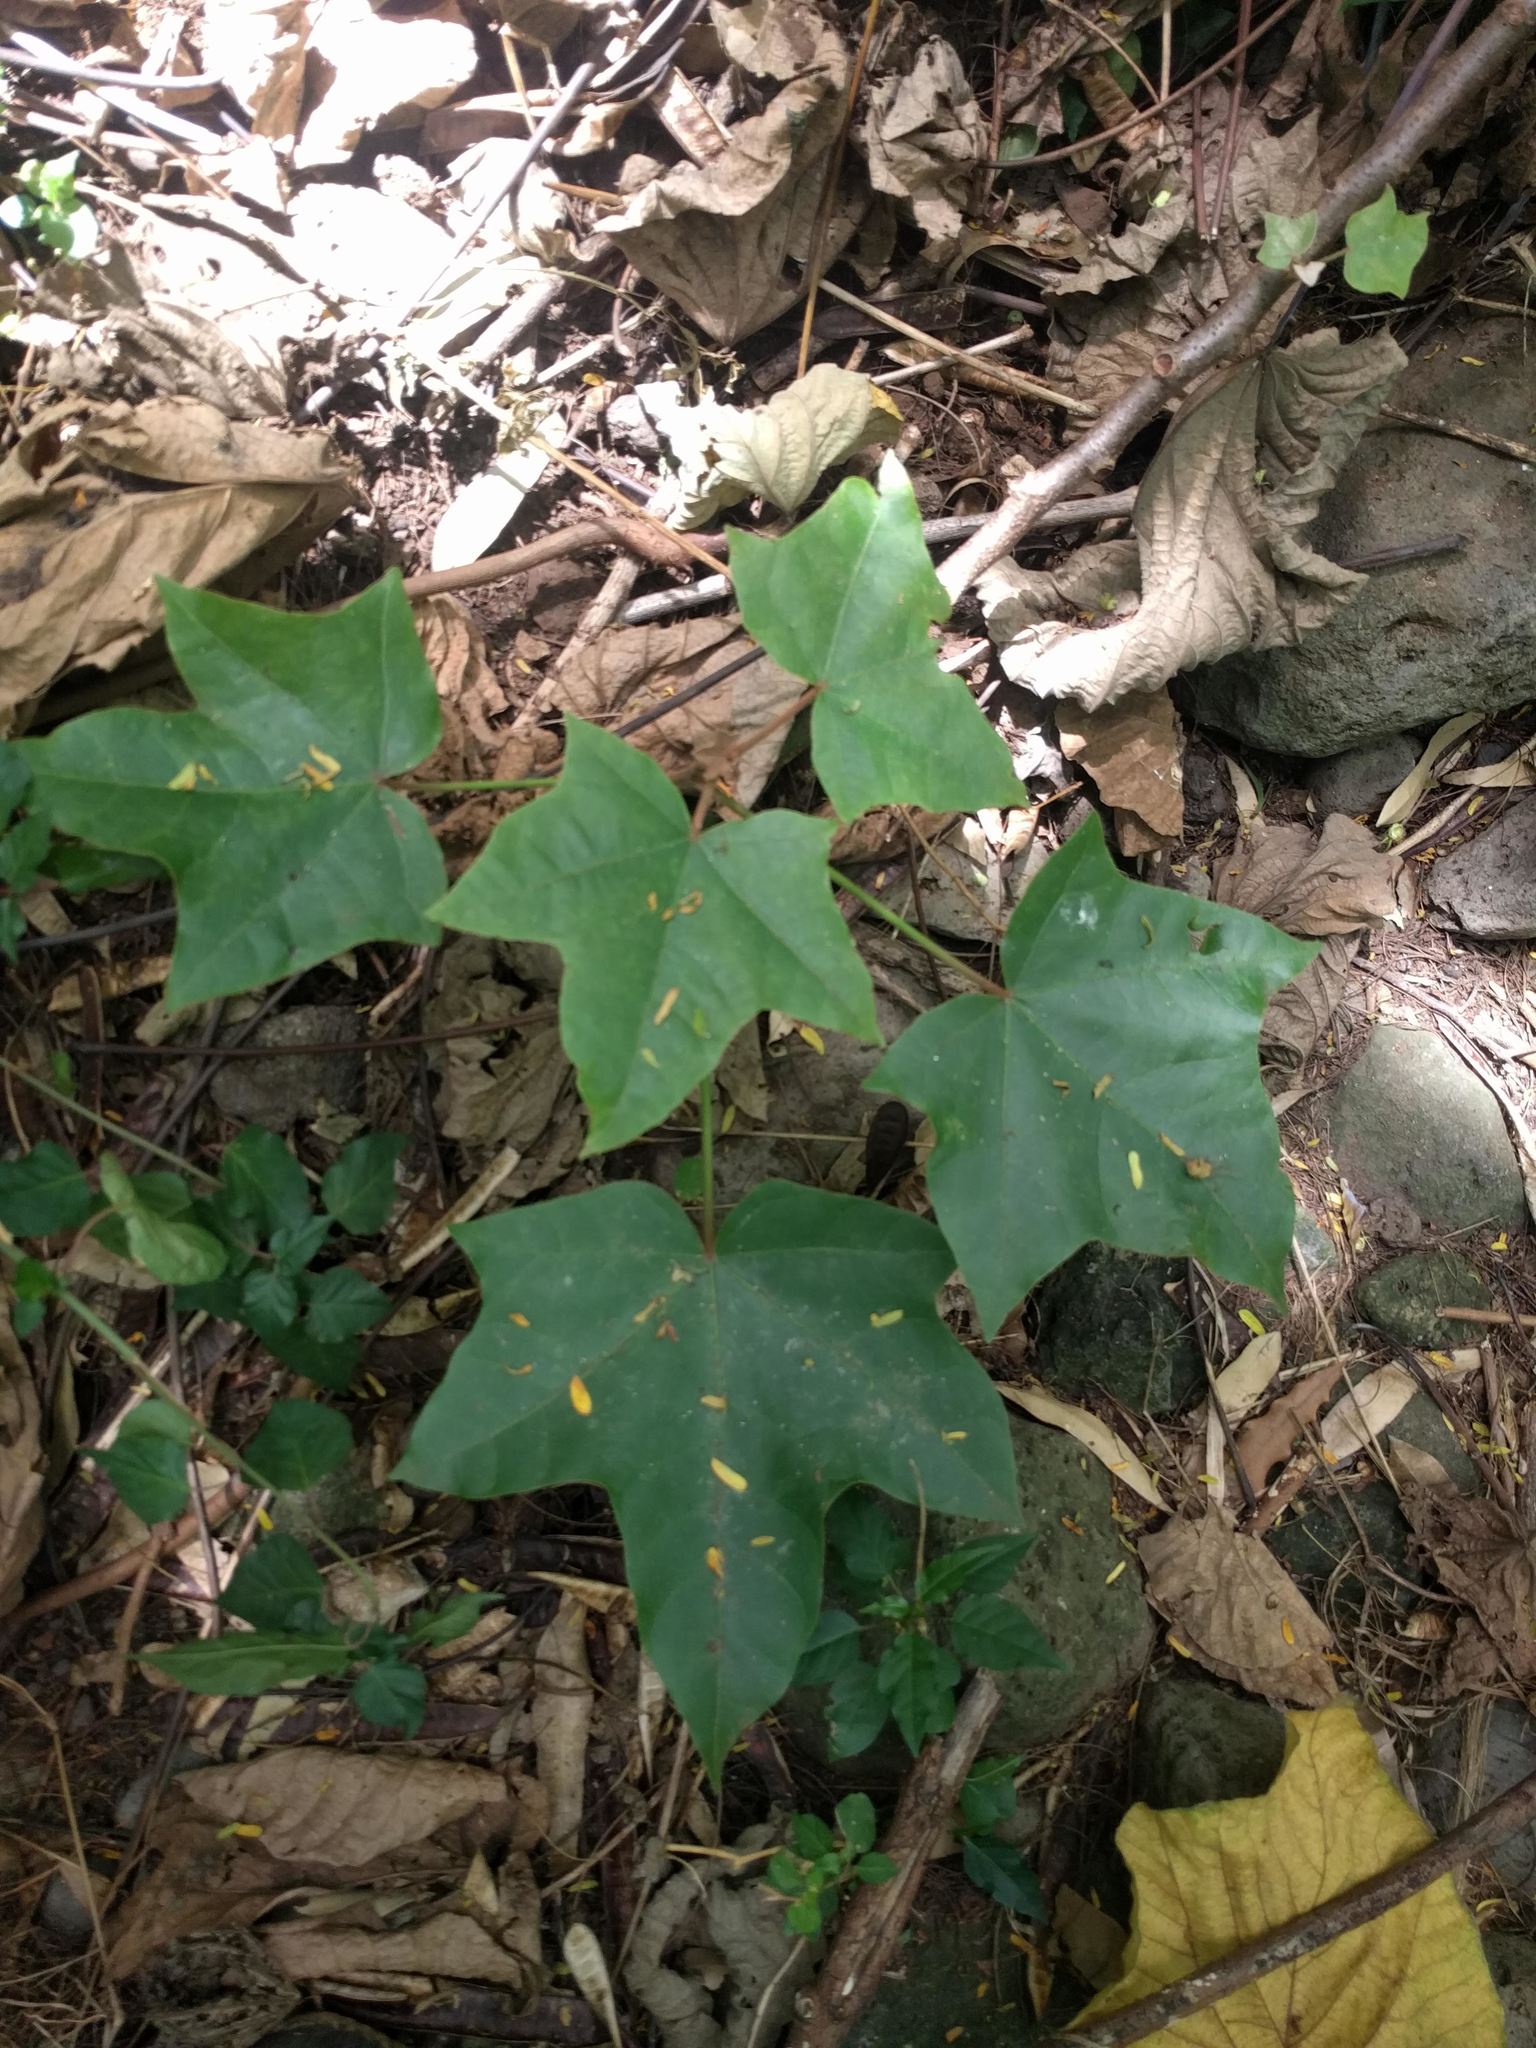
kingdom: Plantae
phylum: Tracheophyta
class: Magnoliopsida
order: Malpighiales
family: Euphorbiaceae
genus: Aleurites
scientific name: Aleurites moluccanus
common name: Candlenut tree
